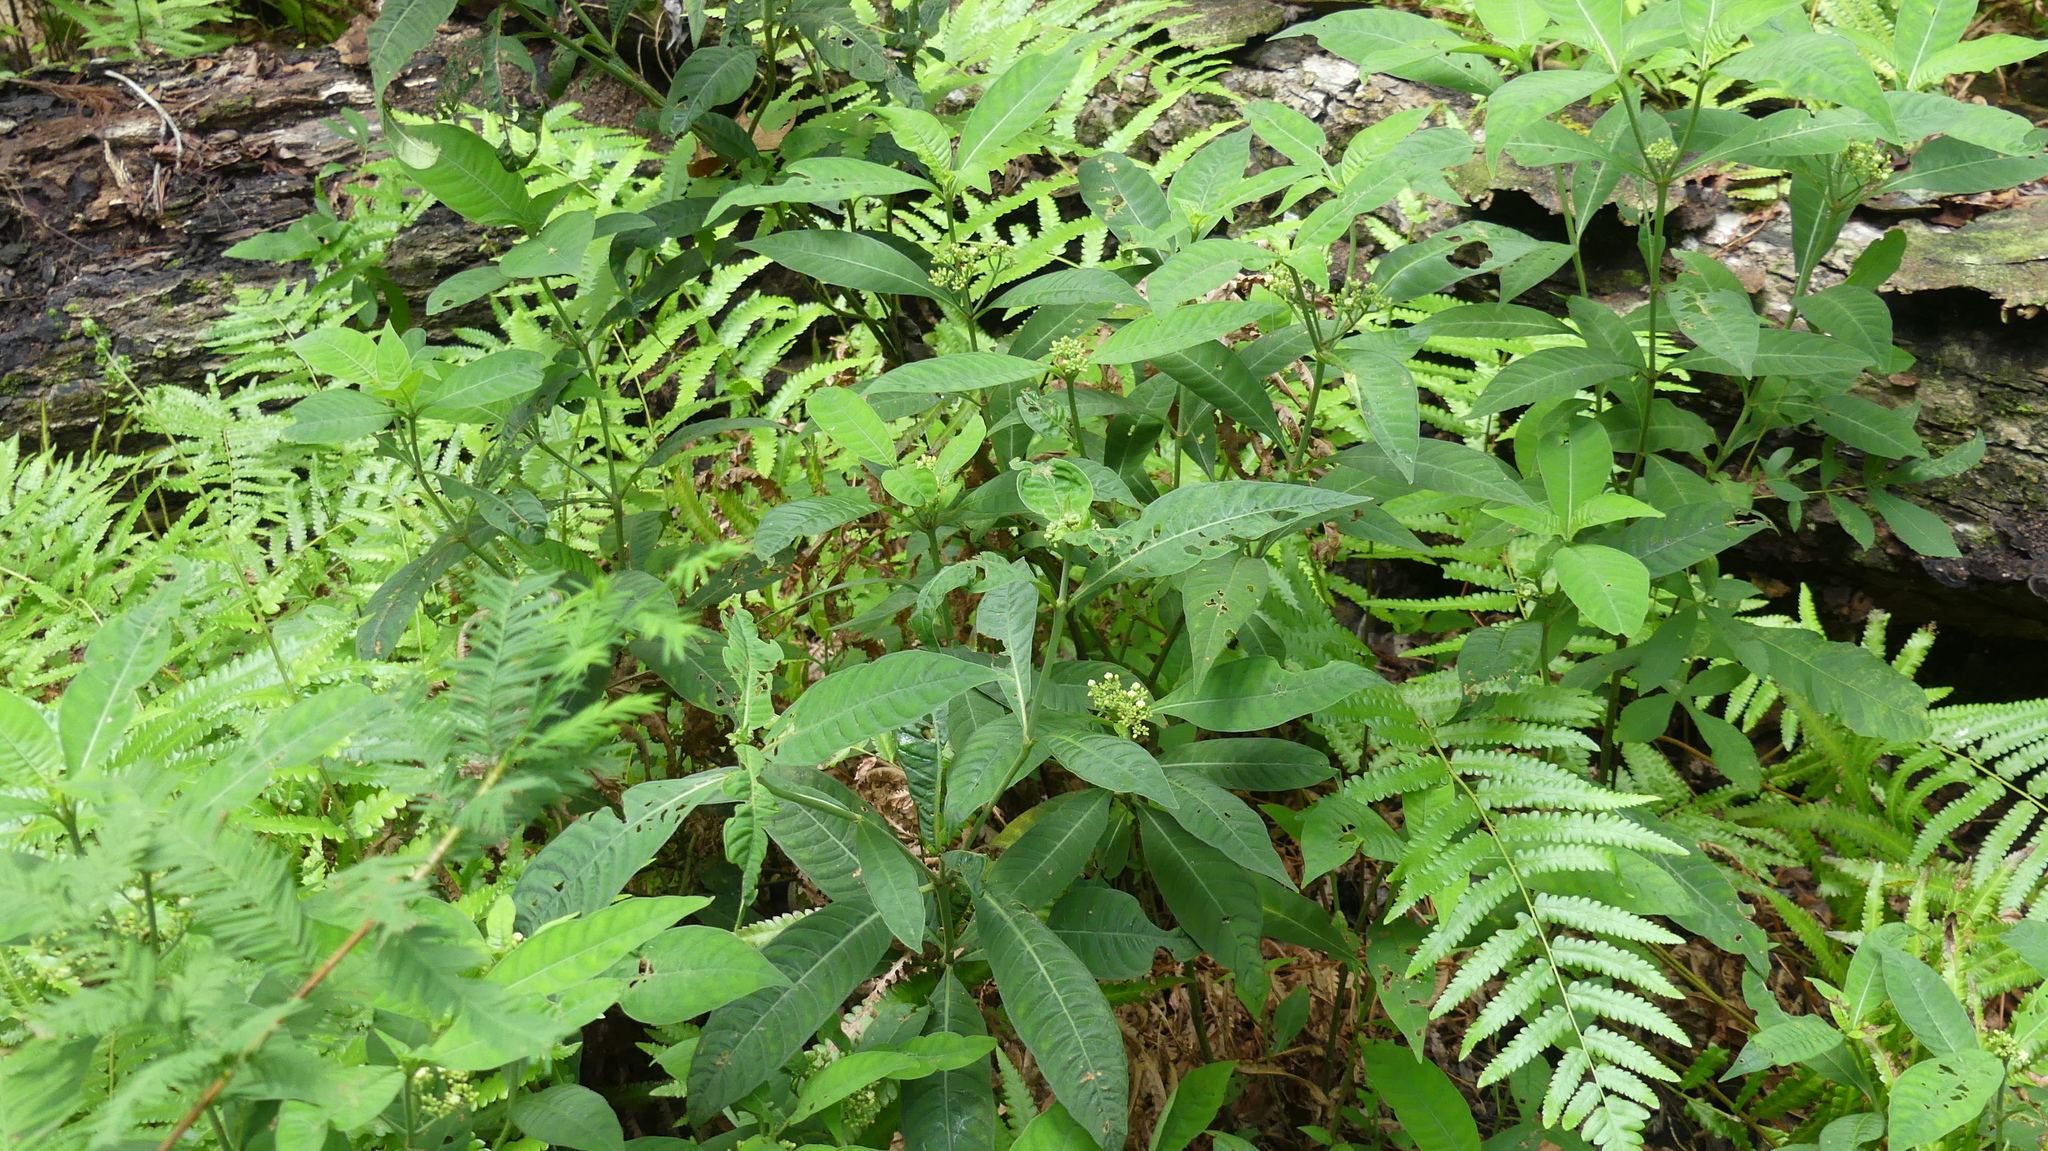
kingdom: Plantae
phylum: Tracheophyta
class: Magnoliopsida
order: Gentianales
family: Rubiaceae
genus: Psychotria
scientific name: Psychotria tenuifolia
